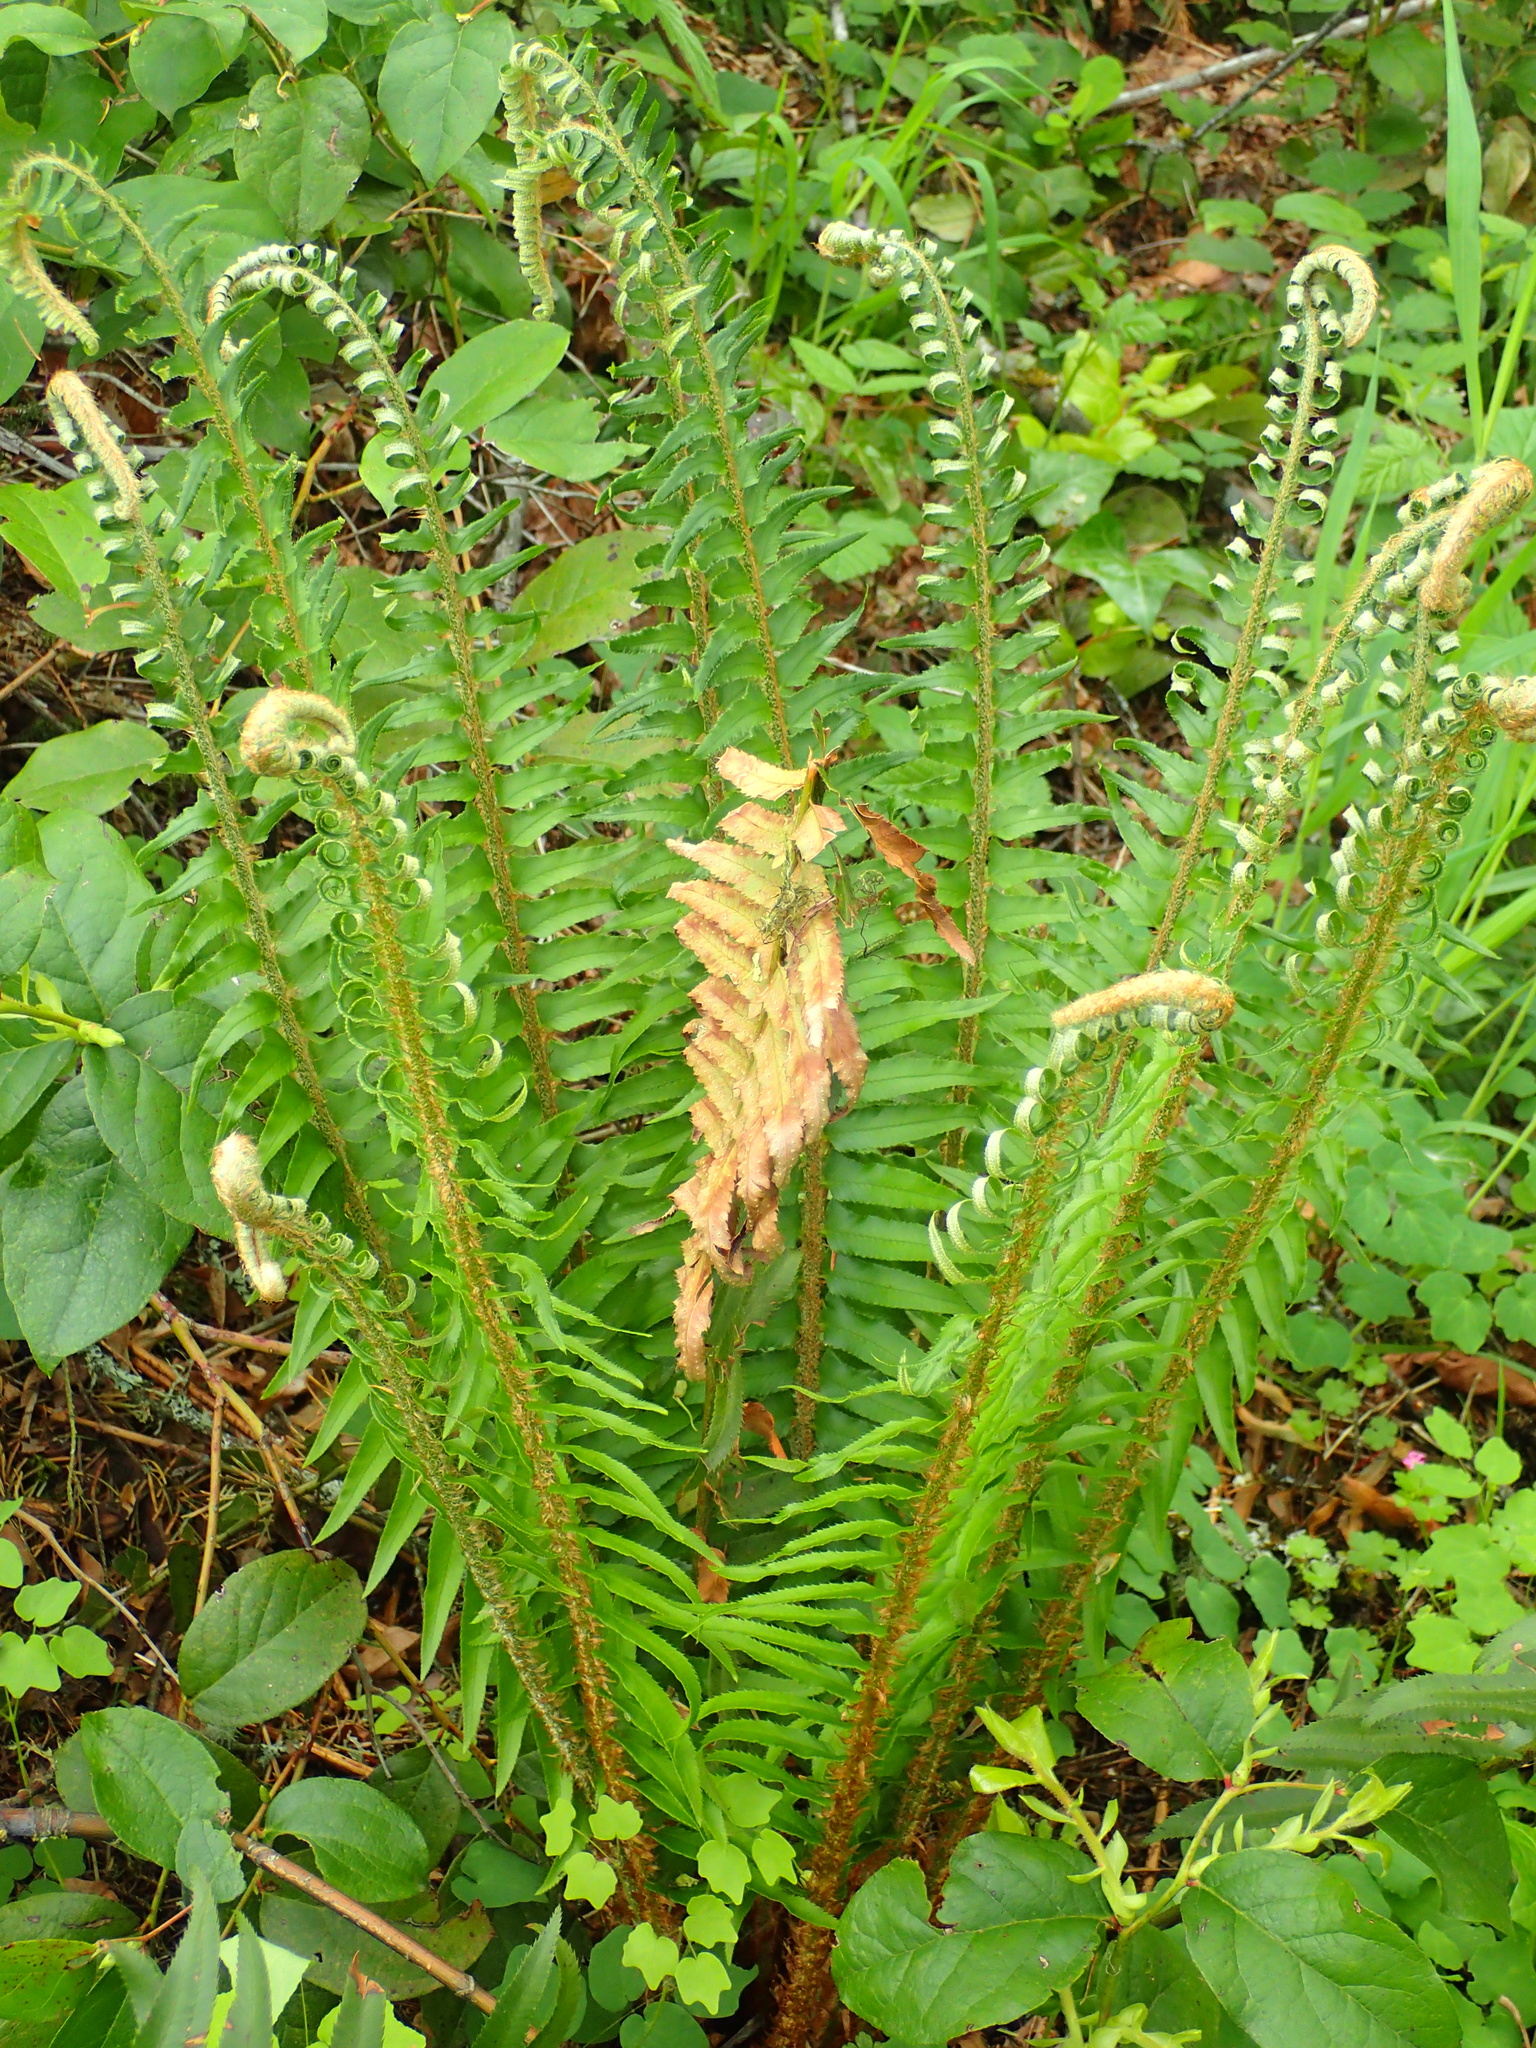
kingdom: Plantae
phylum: Tracheophyta
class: Polypodiopsida
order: Polypodiales
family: Dryopteridaceae
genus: Polystichum
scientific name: Polystichum munitum
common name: Western sword-fern
